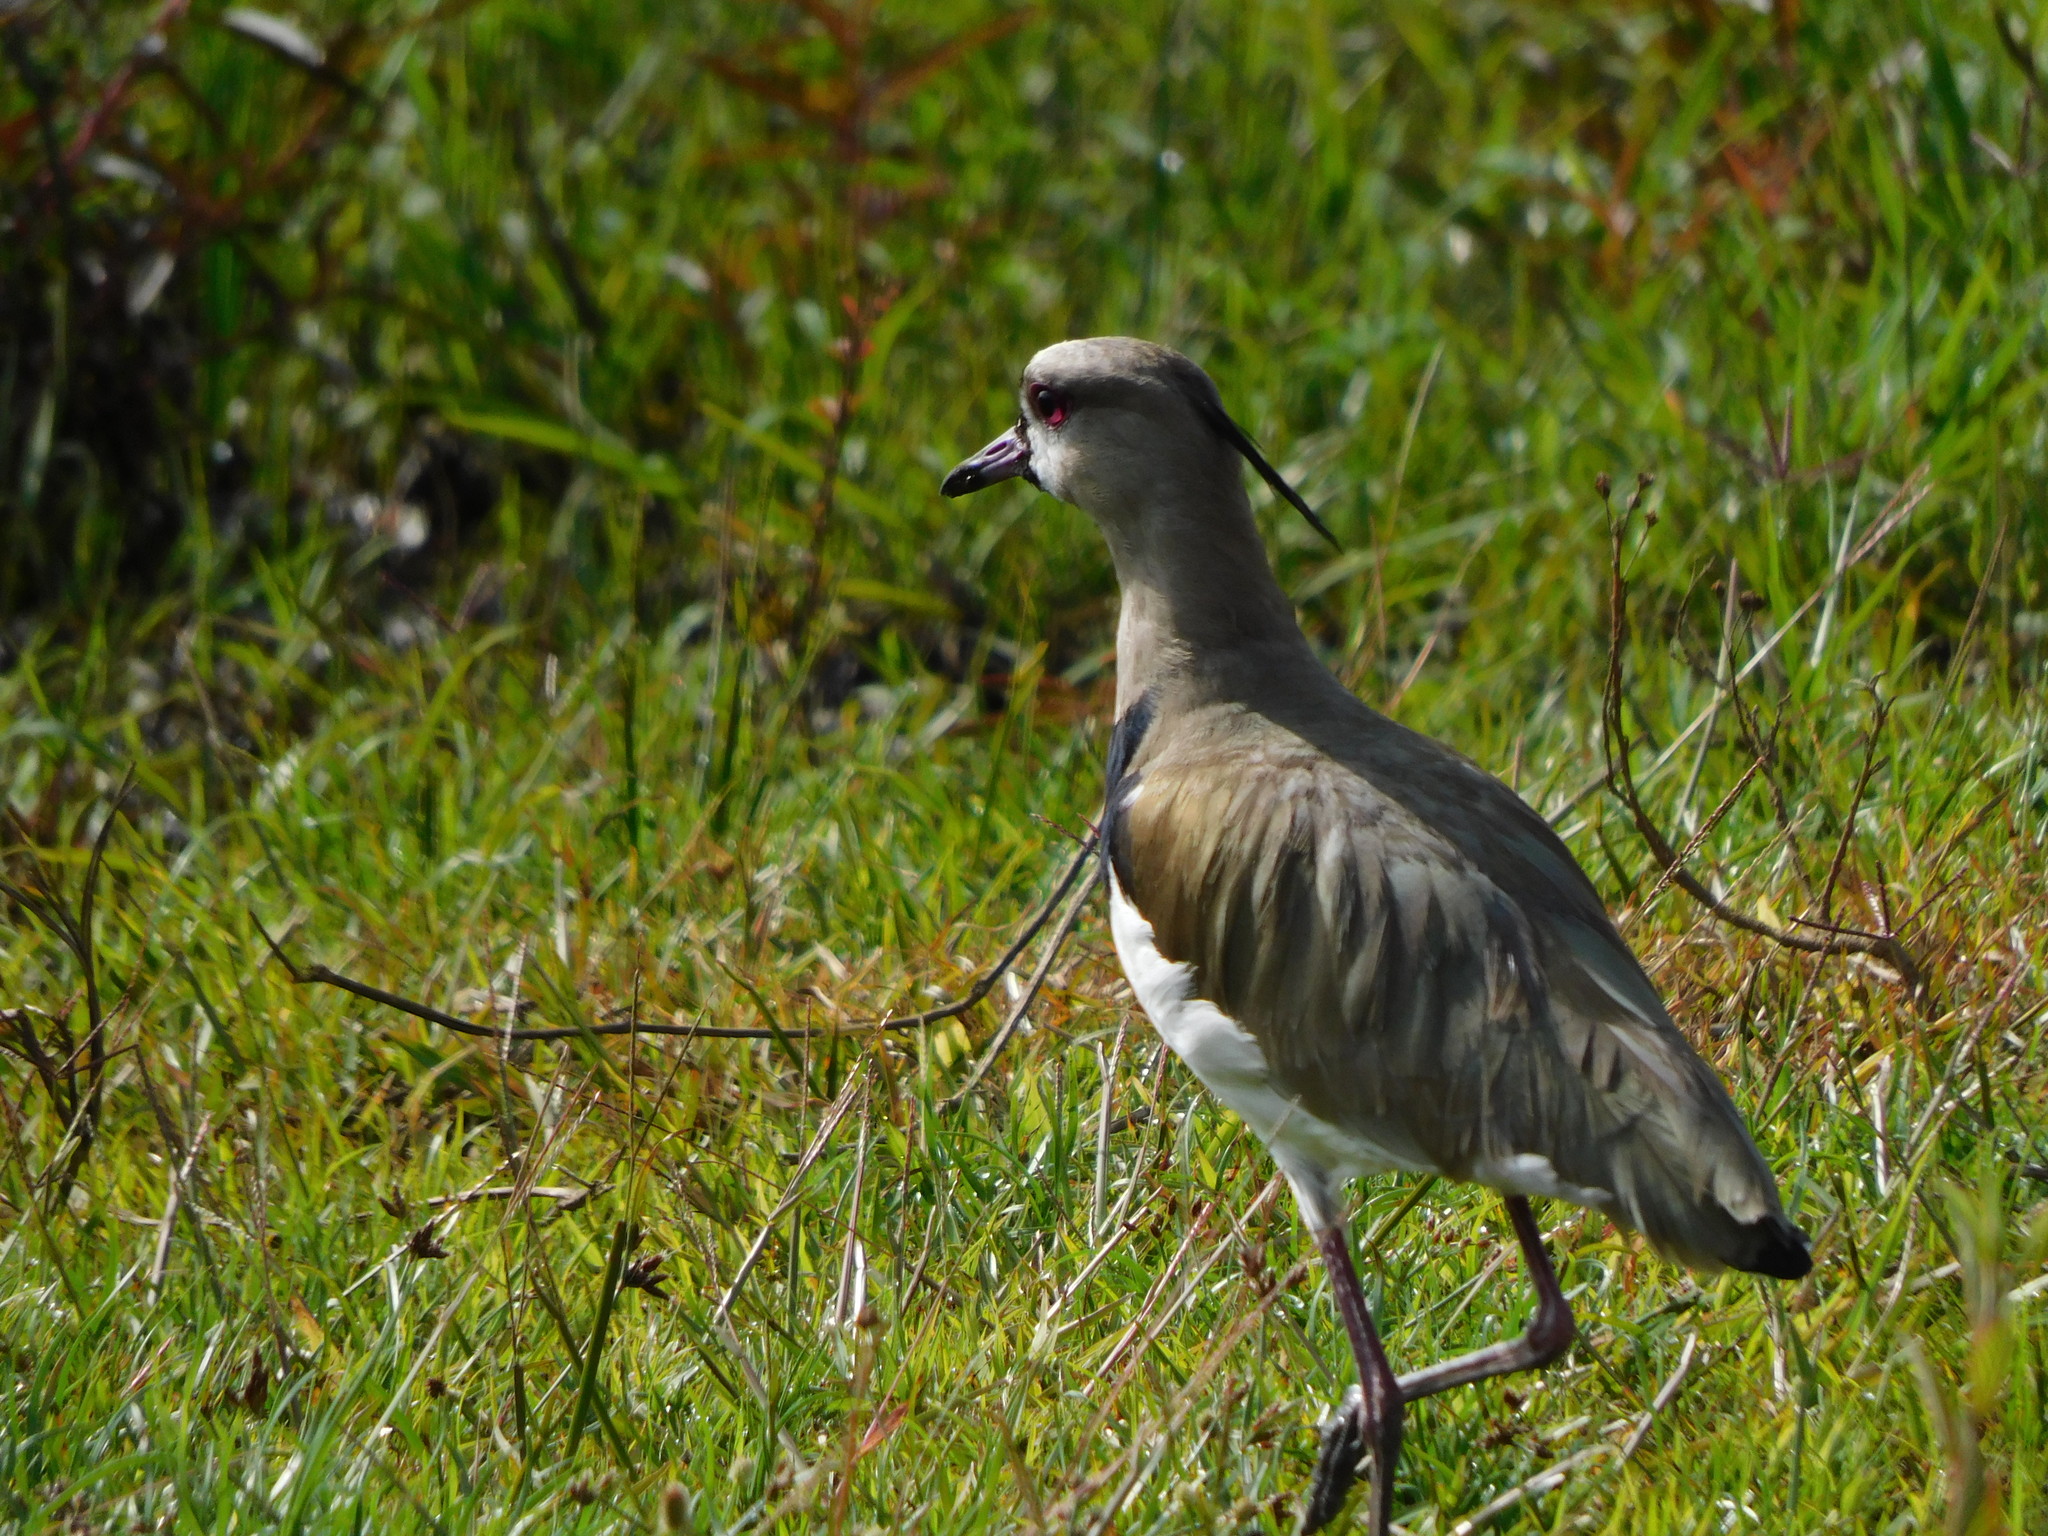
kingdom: Animalia
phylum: Chordata
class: Aves
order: Charadriiformes
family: Charadriidae
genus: Vanellus
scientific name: Vanellus chilensis
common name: Southern lapwing
